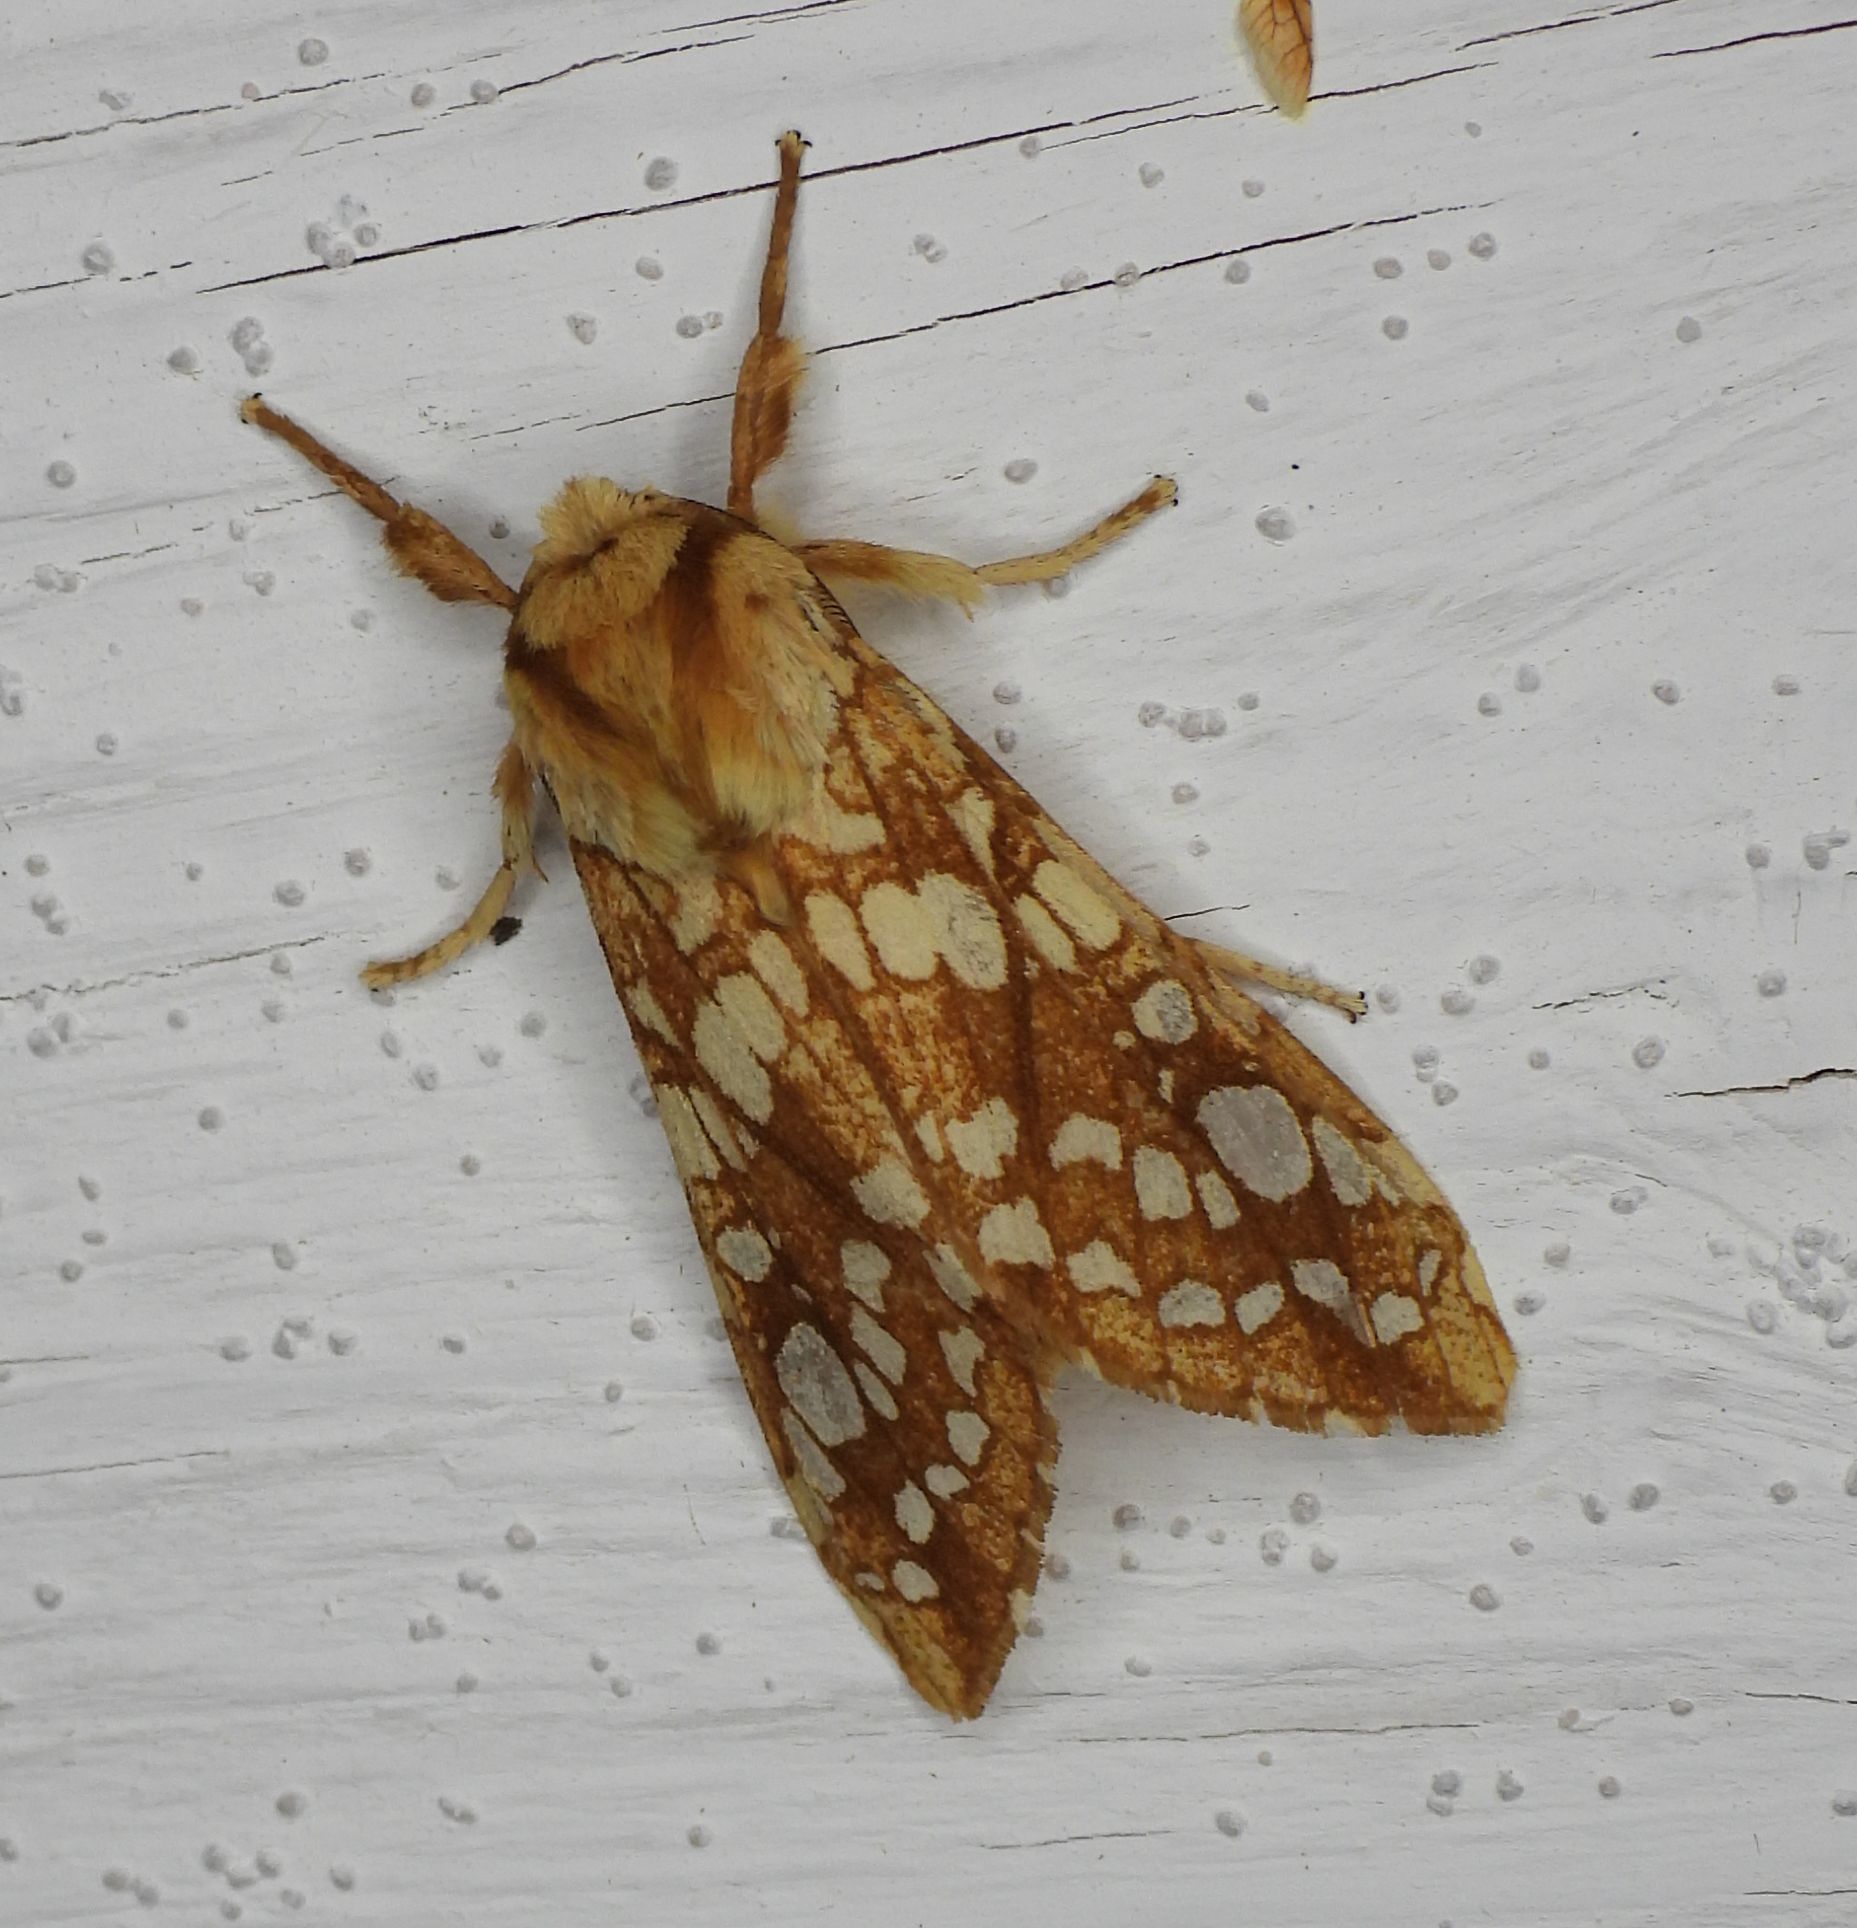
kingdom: Animalia
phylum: Arthropoda
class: Insecta
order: Lepidoptera
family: Erebidae
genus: Lophocampa
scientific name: Lophocampa caryae
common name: Hickory tussock moth
